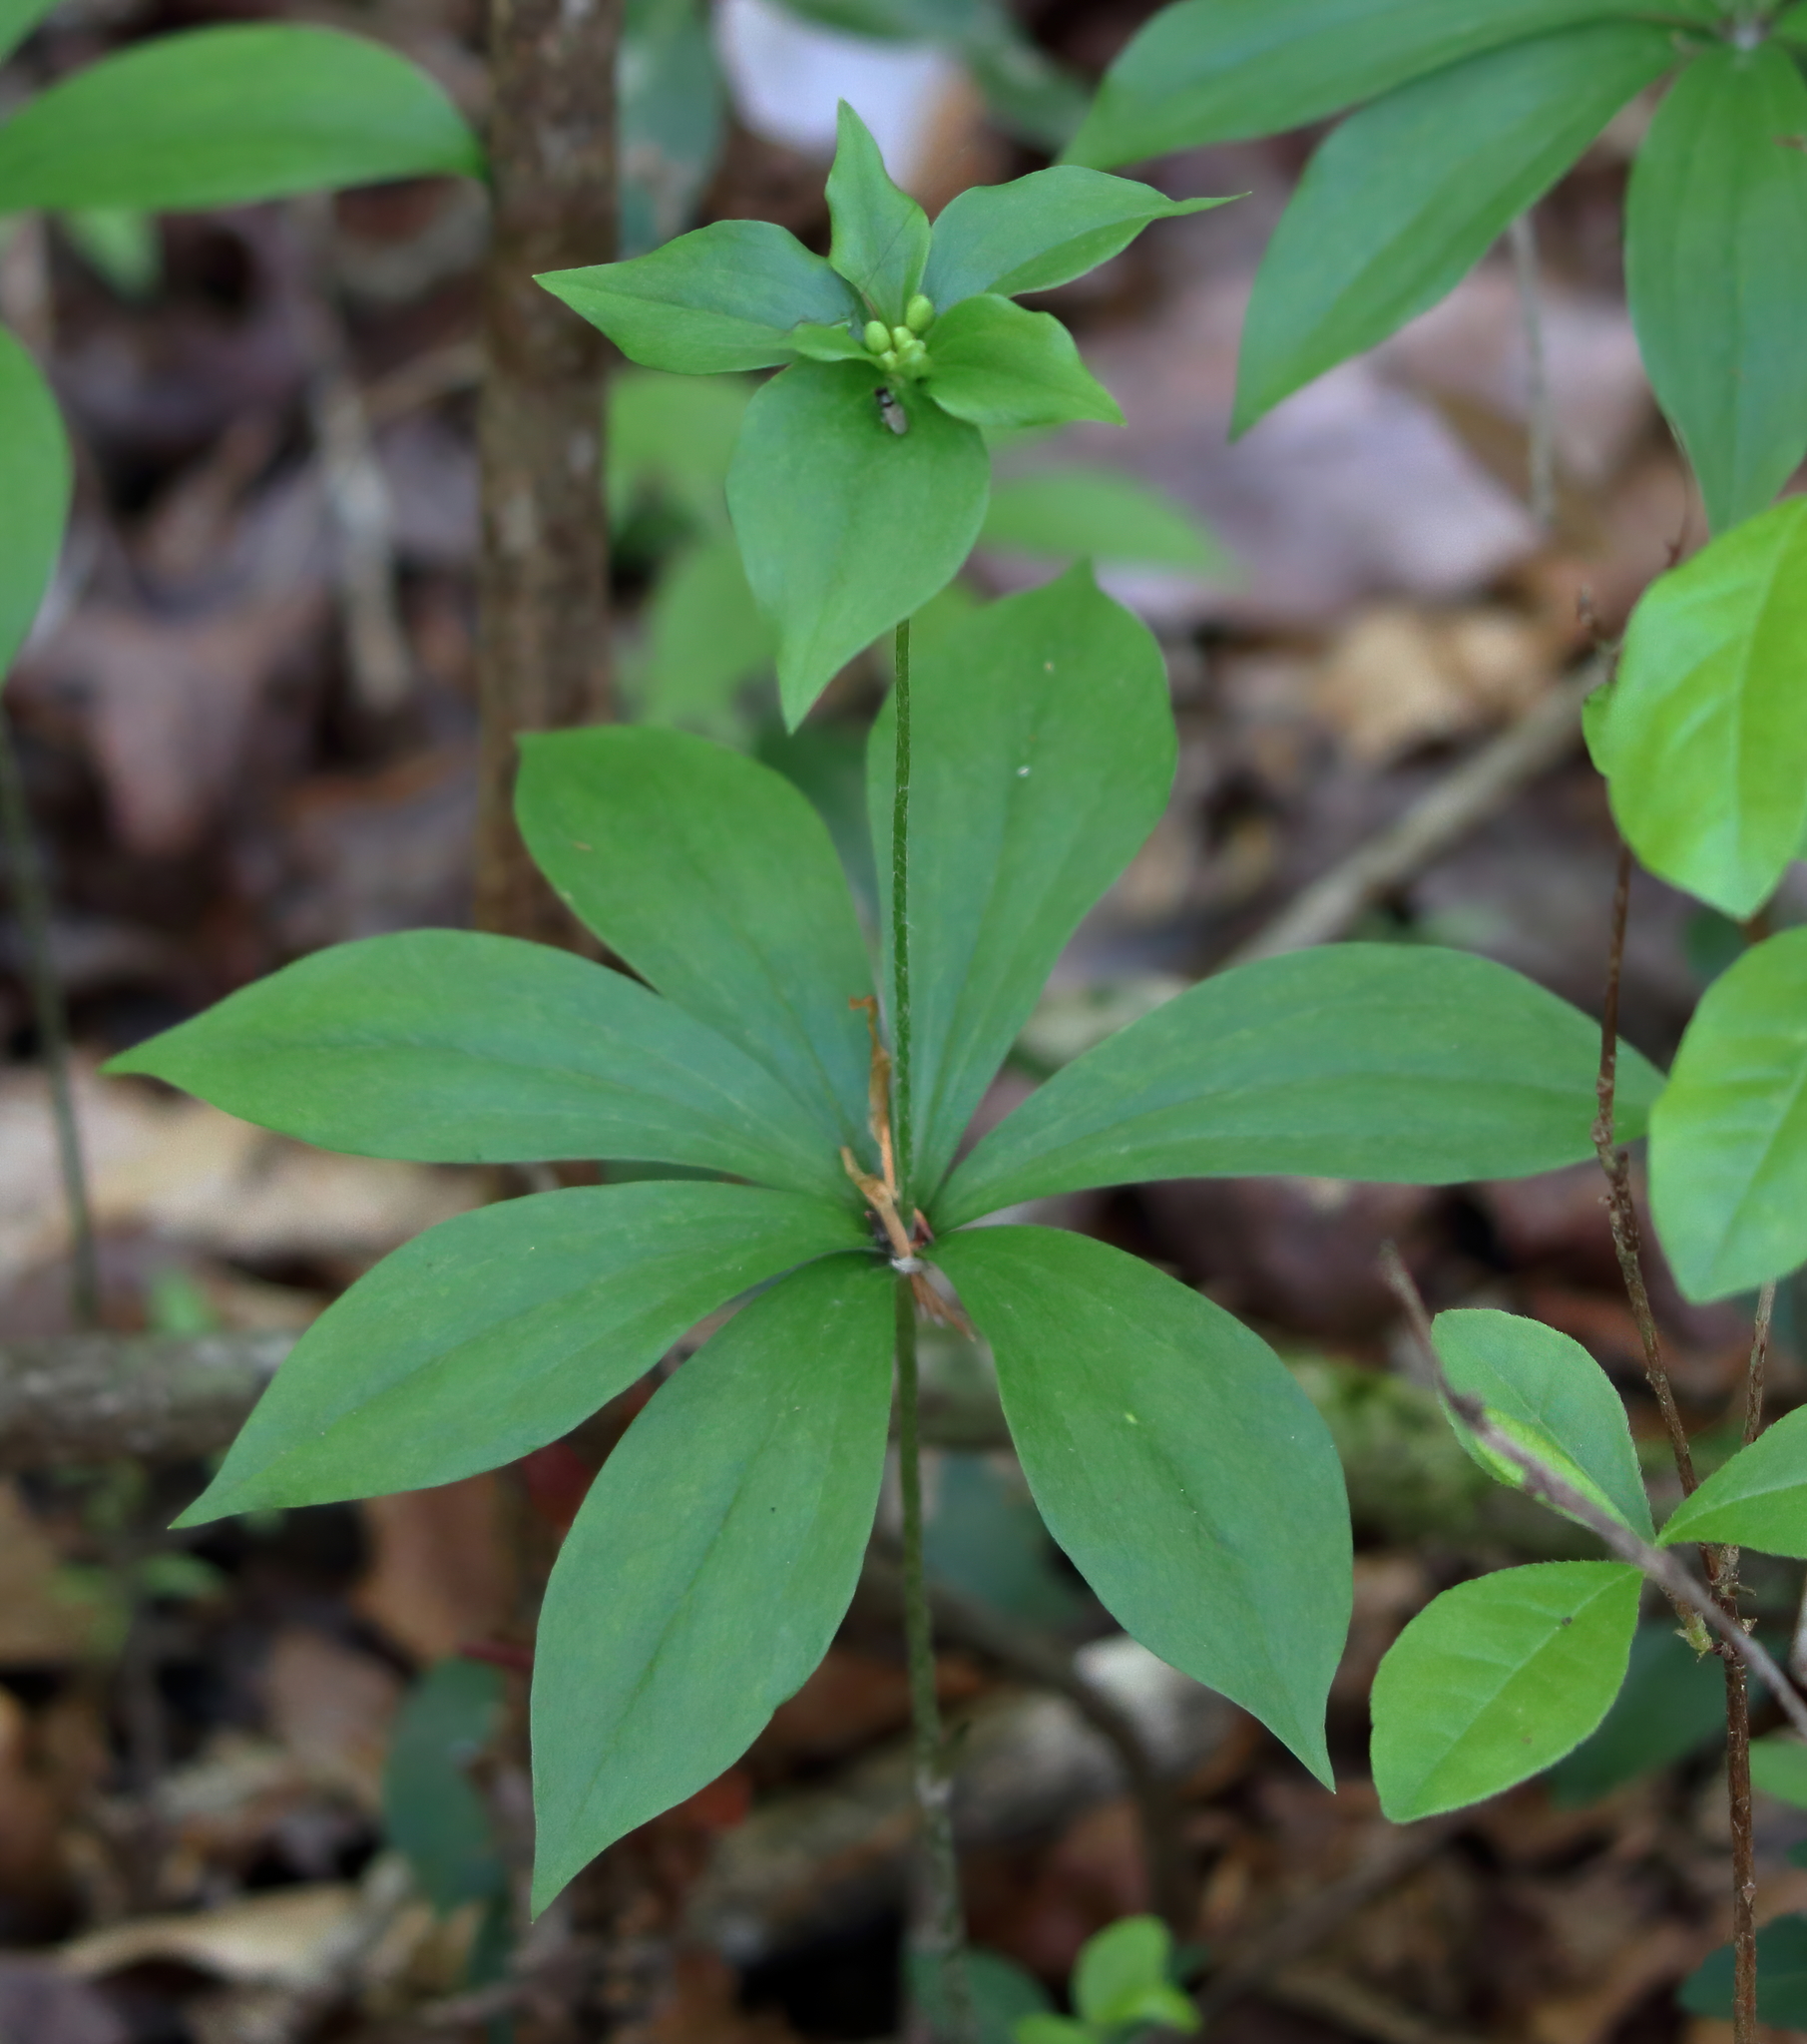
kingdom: Plantae
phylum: Tracheophyta
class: Liliopsida
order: Liliales
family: Liliaceae
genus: Medeola
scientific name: Medeola virginiana
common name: Indian cucumber-root
